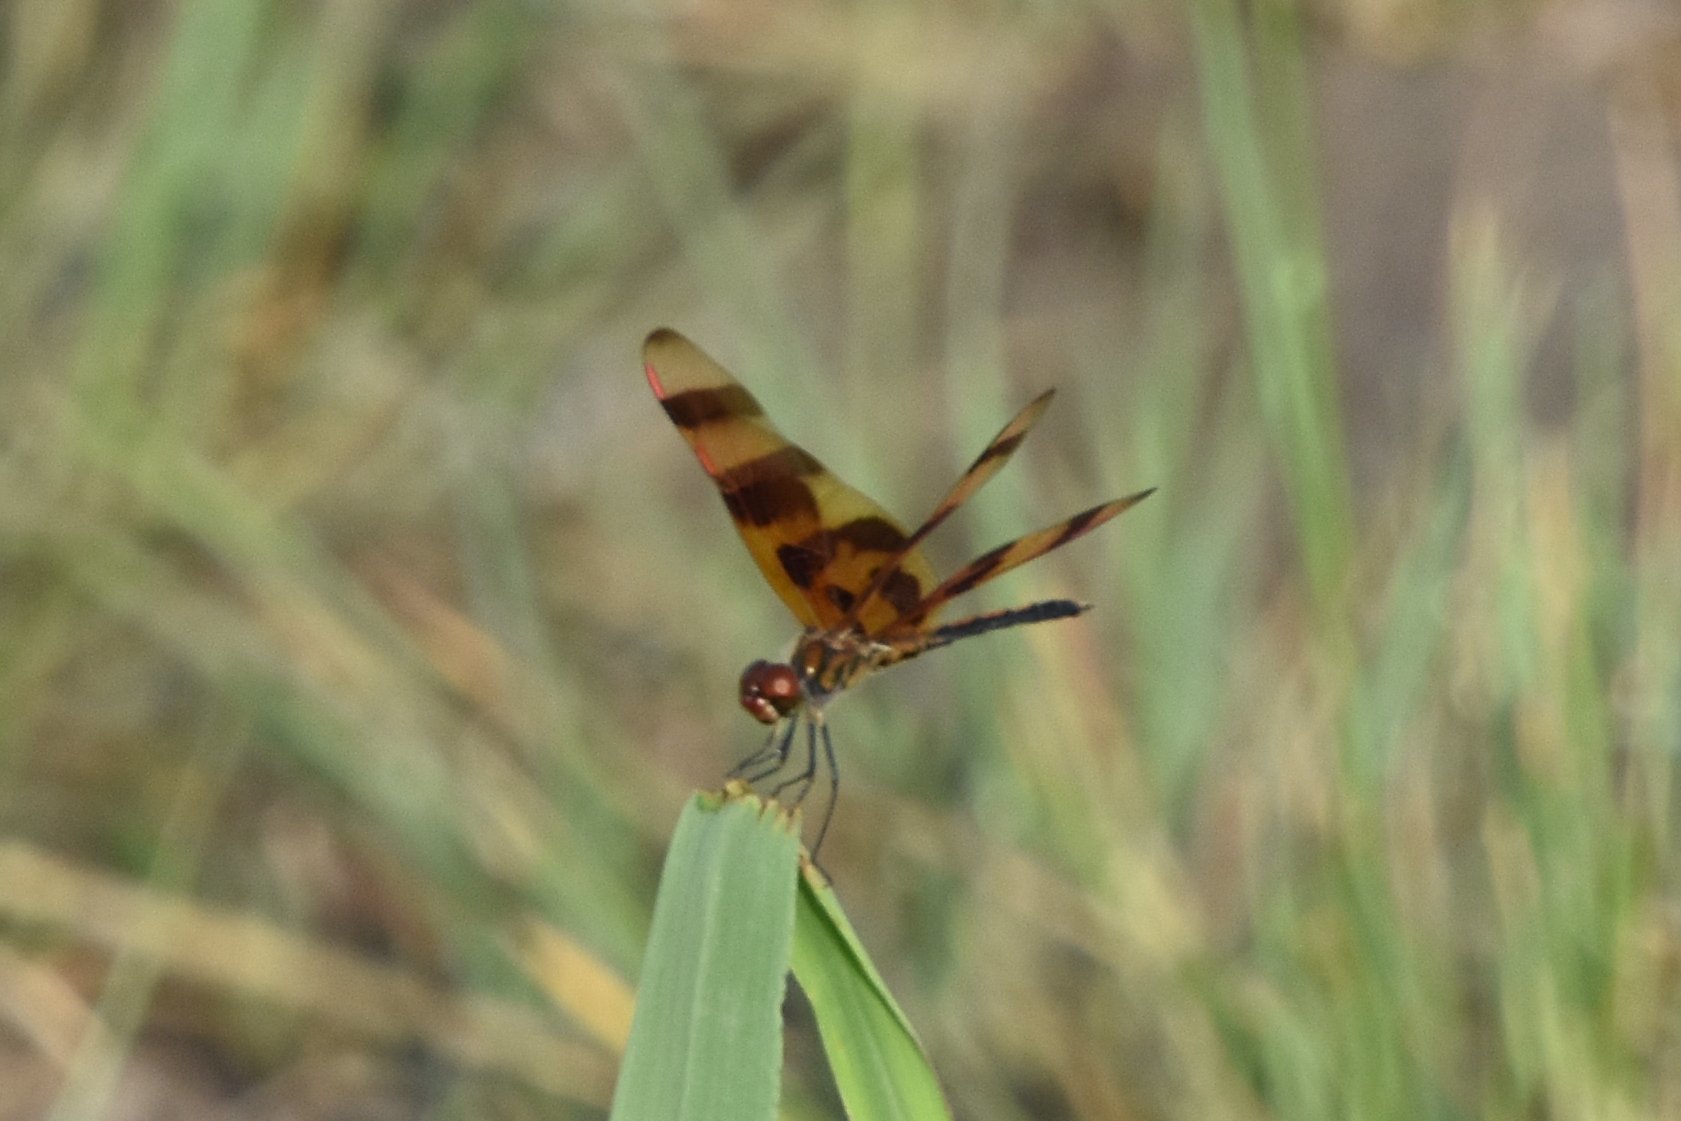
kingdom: Animalia
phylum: Arthropoda
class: Insecta
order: Odonata
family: Libellulidae
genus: Celithemis
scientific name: Celithemis eponina
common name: Halloween pennant
